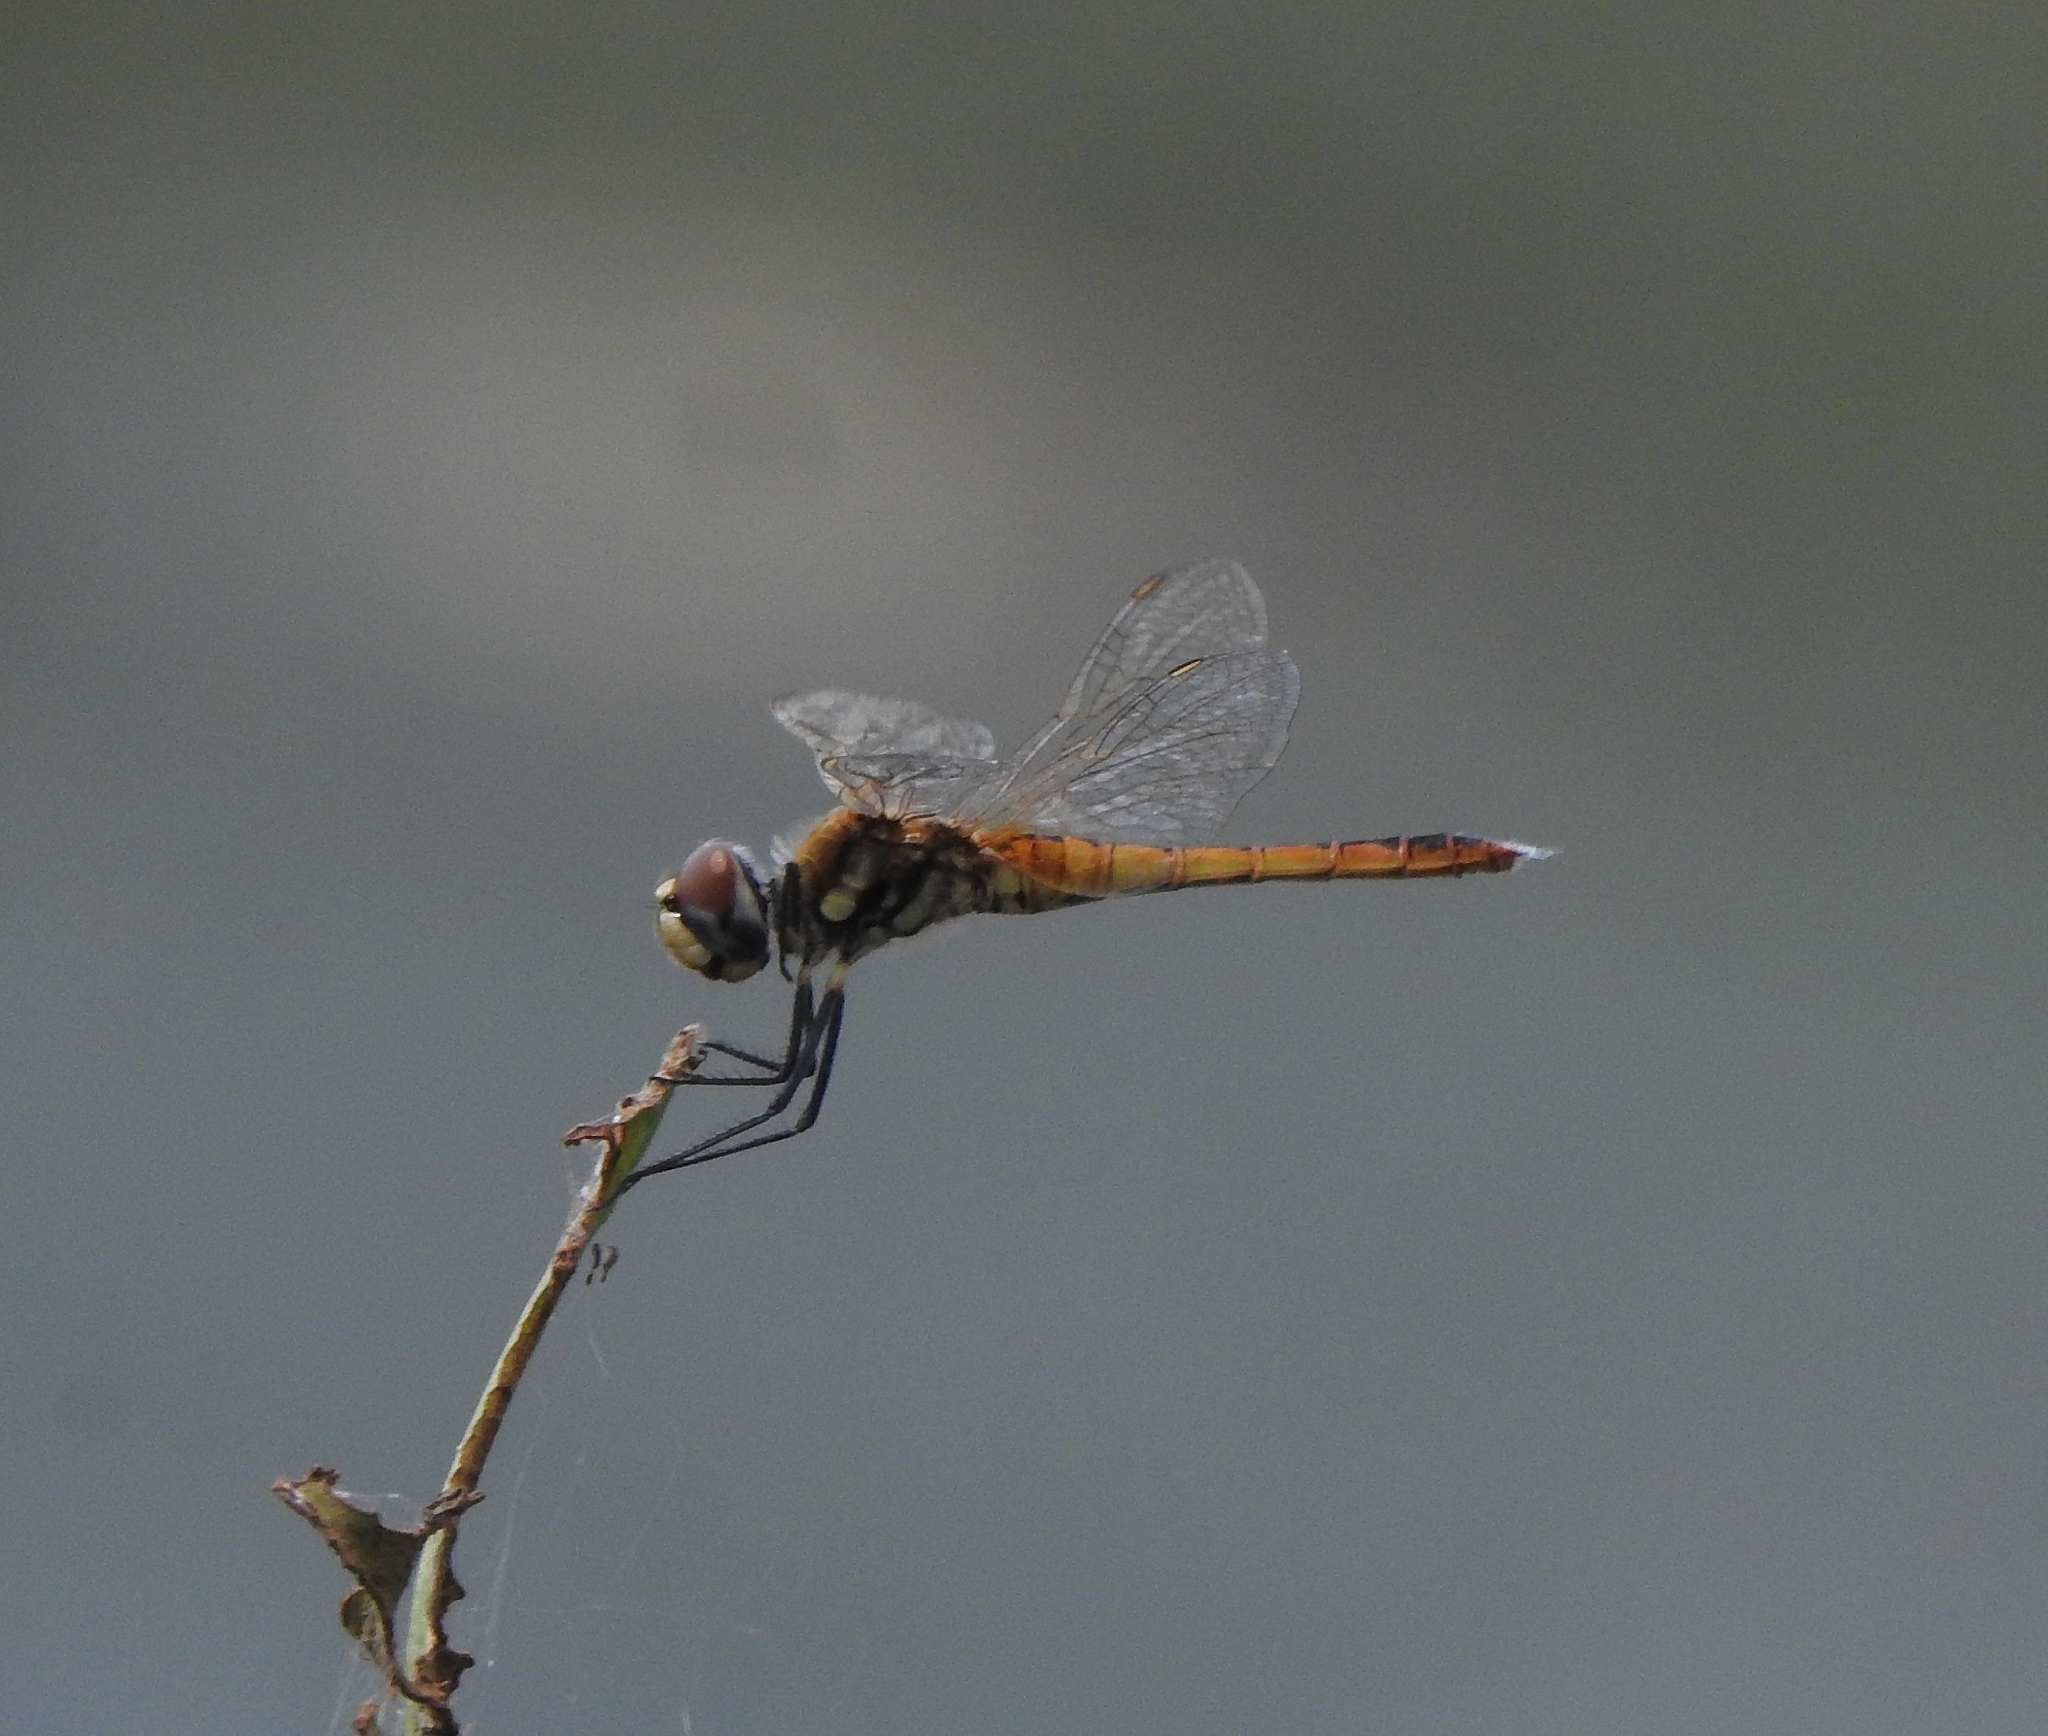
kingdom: Animalia
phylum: Arthropoda
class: Insecta
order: Odonata
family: Libellulidae
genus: Macrodiplax
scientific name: Macrodiplax cora
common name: Coastal glider
